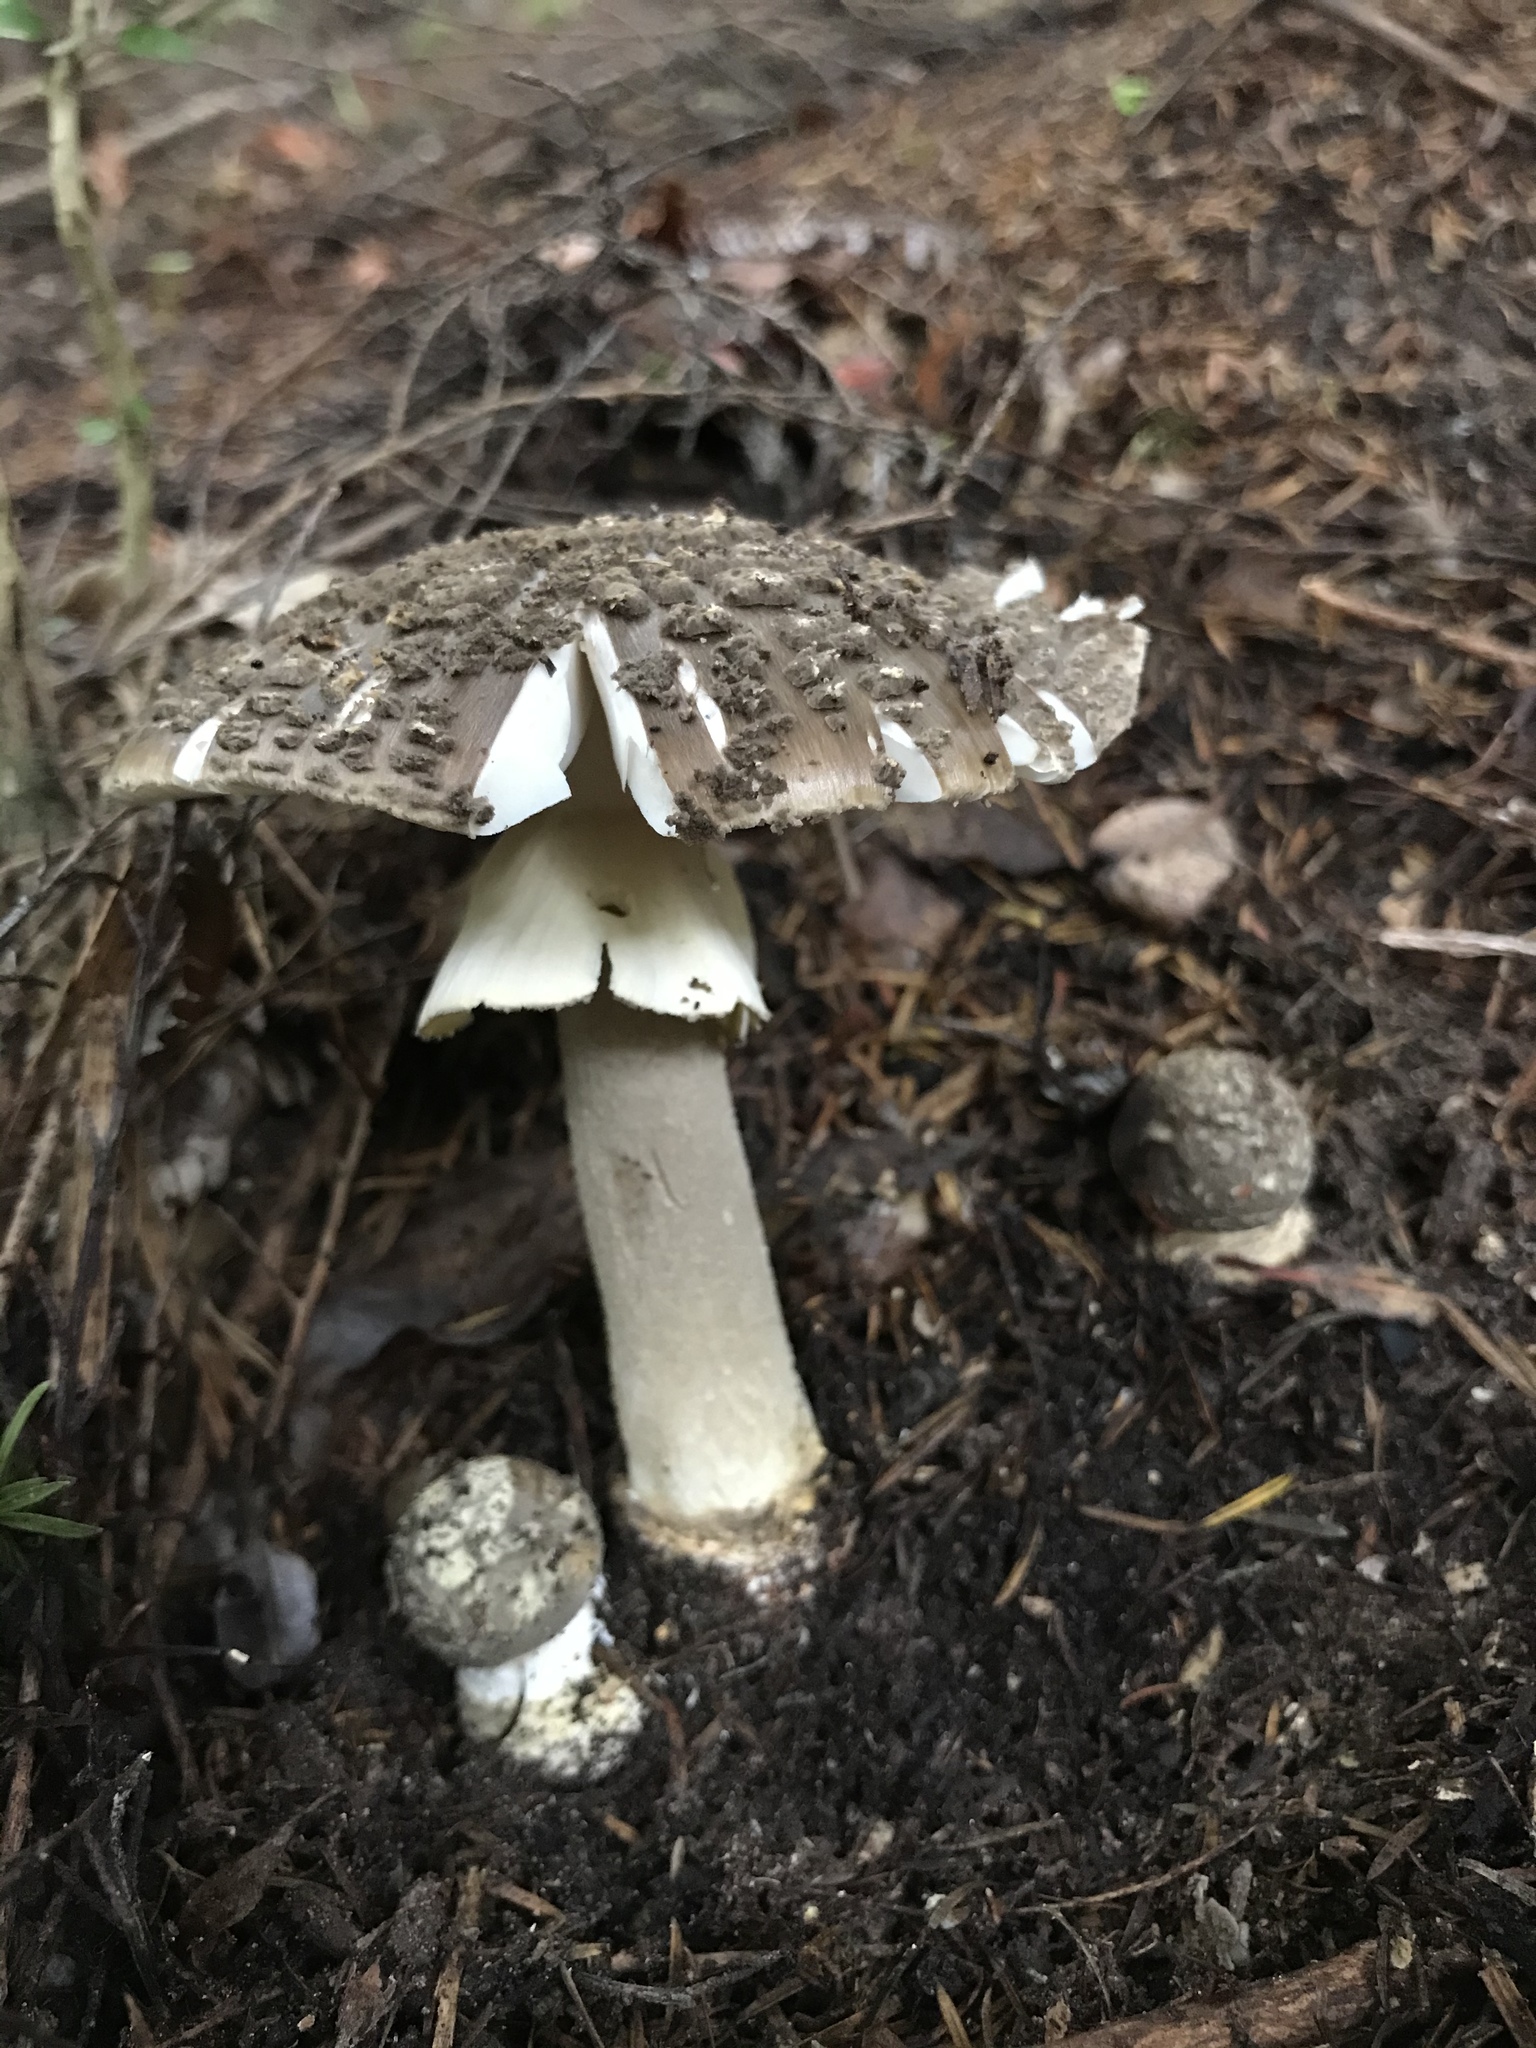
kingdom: Fungi
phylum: Basidiomycota
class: Agaricomycetes
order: Agaricales
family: Amanitaceae
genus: Amanita
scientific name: Amanita nothofagi
